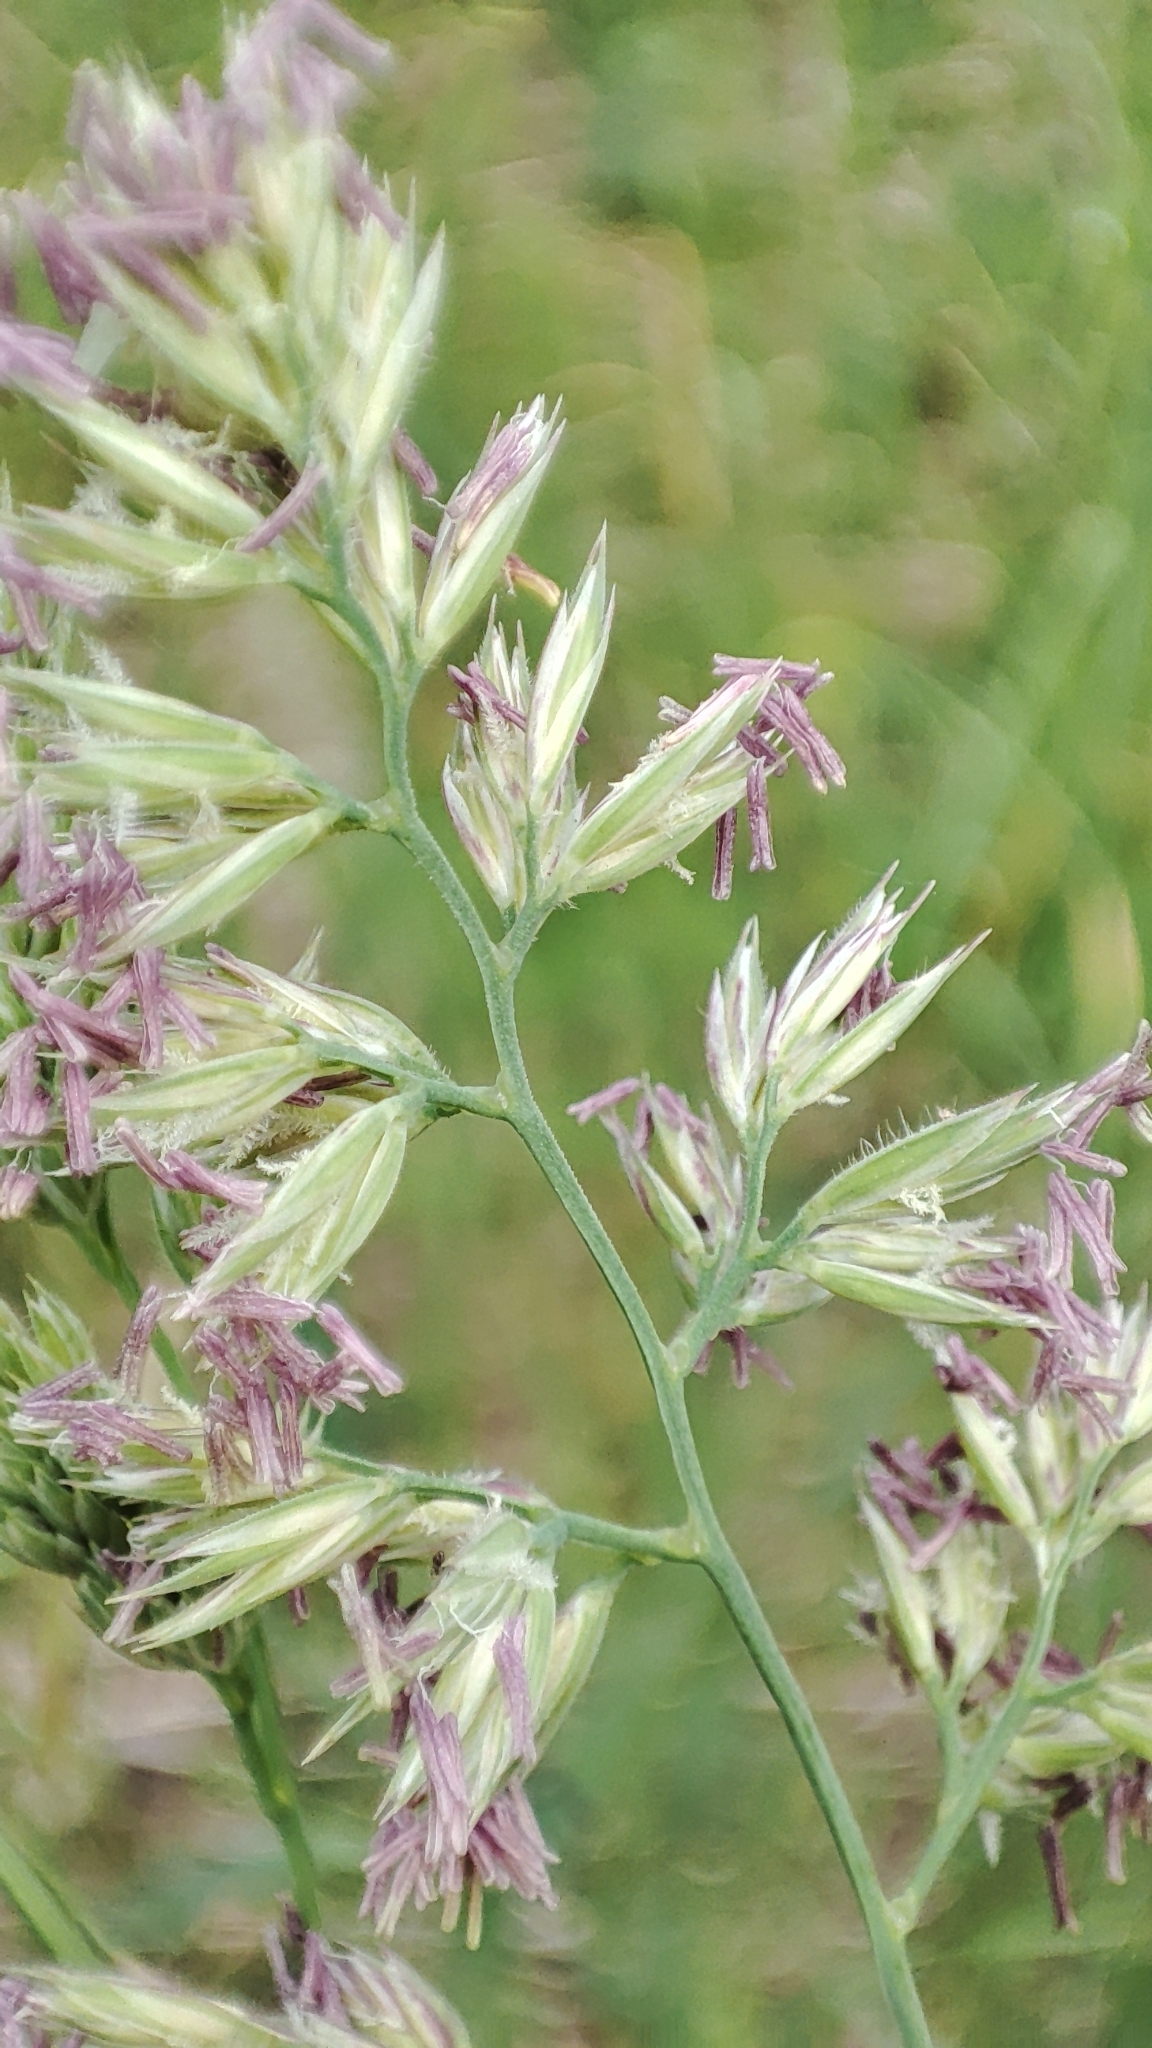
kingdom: Plantae
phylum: Tracheophyta
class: Liliopsida
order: Poales
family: Poaceae
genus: Dactylis
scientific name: Dactylis glomerata
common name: Orchardgrass
